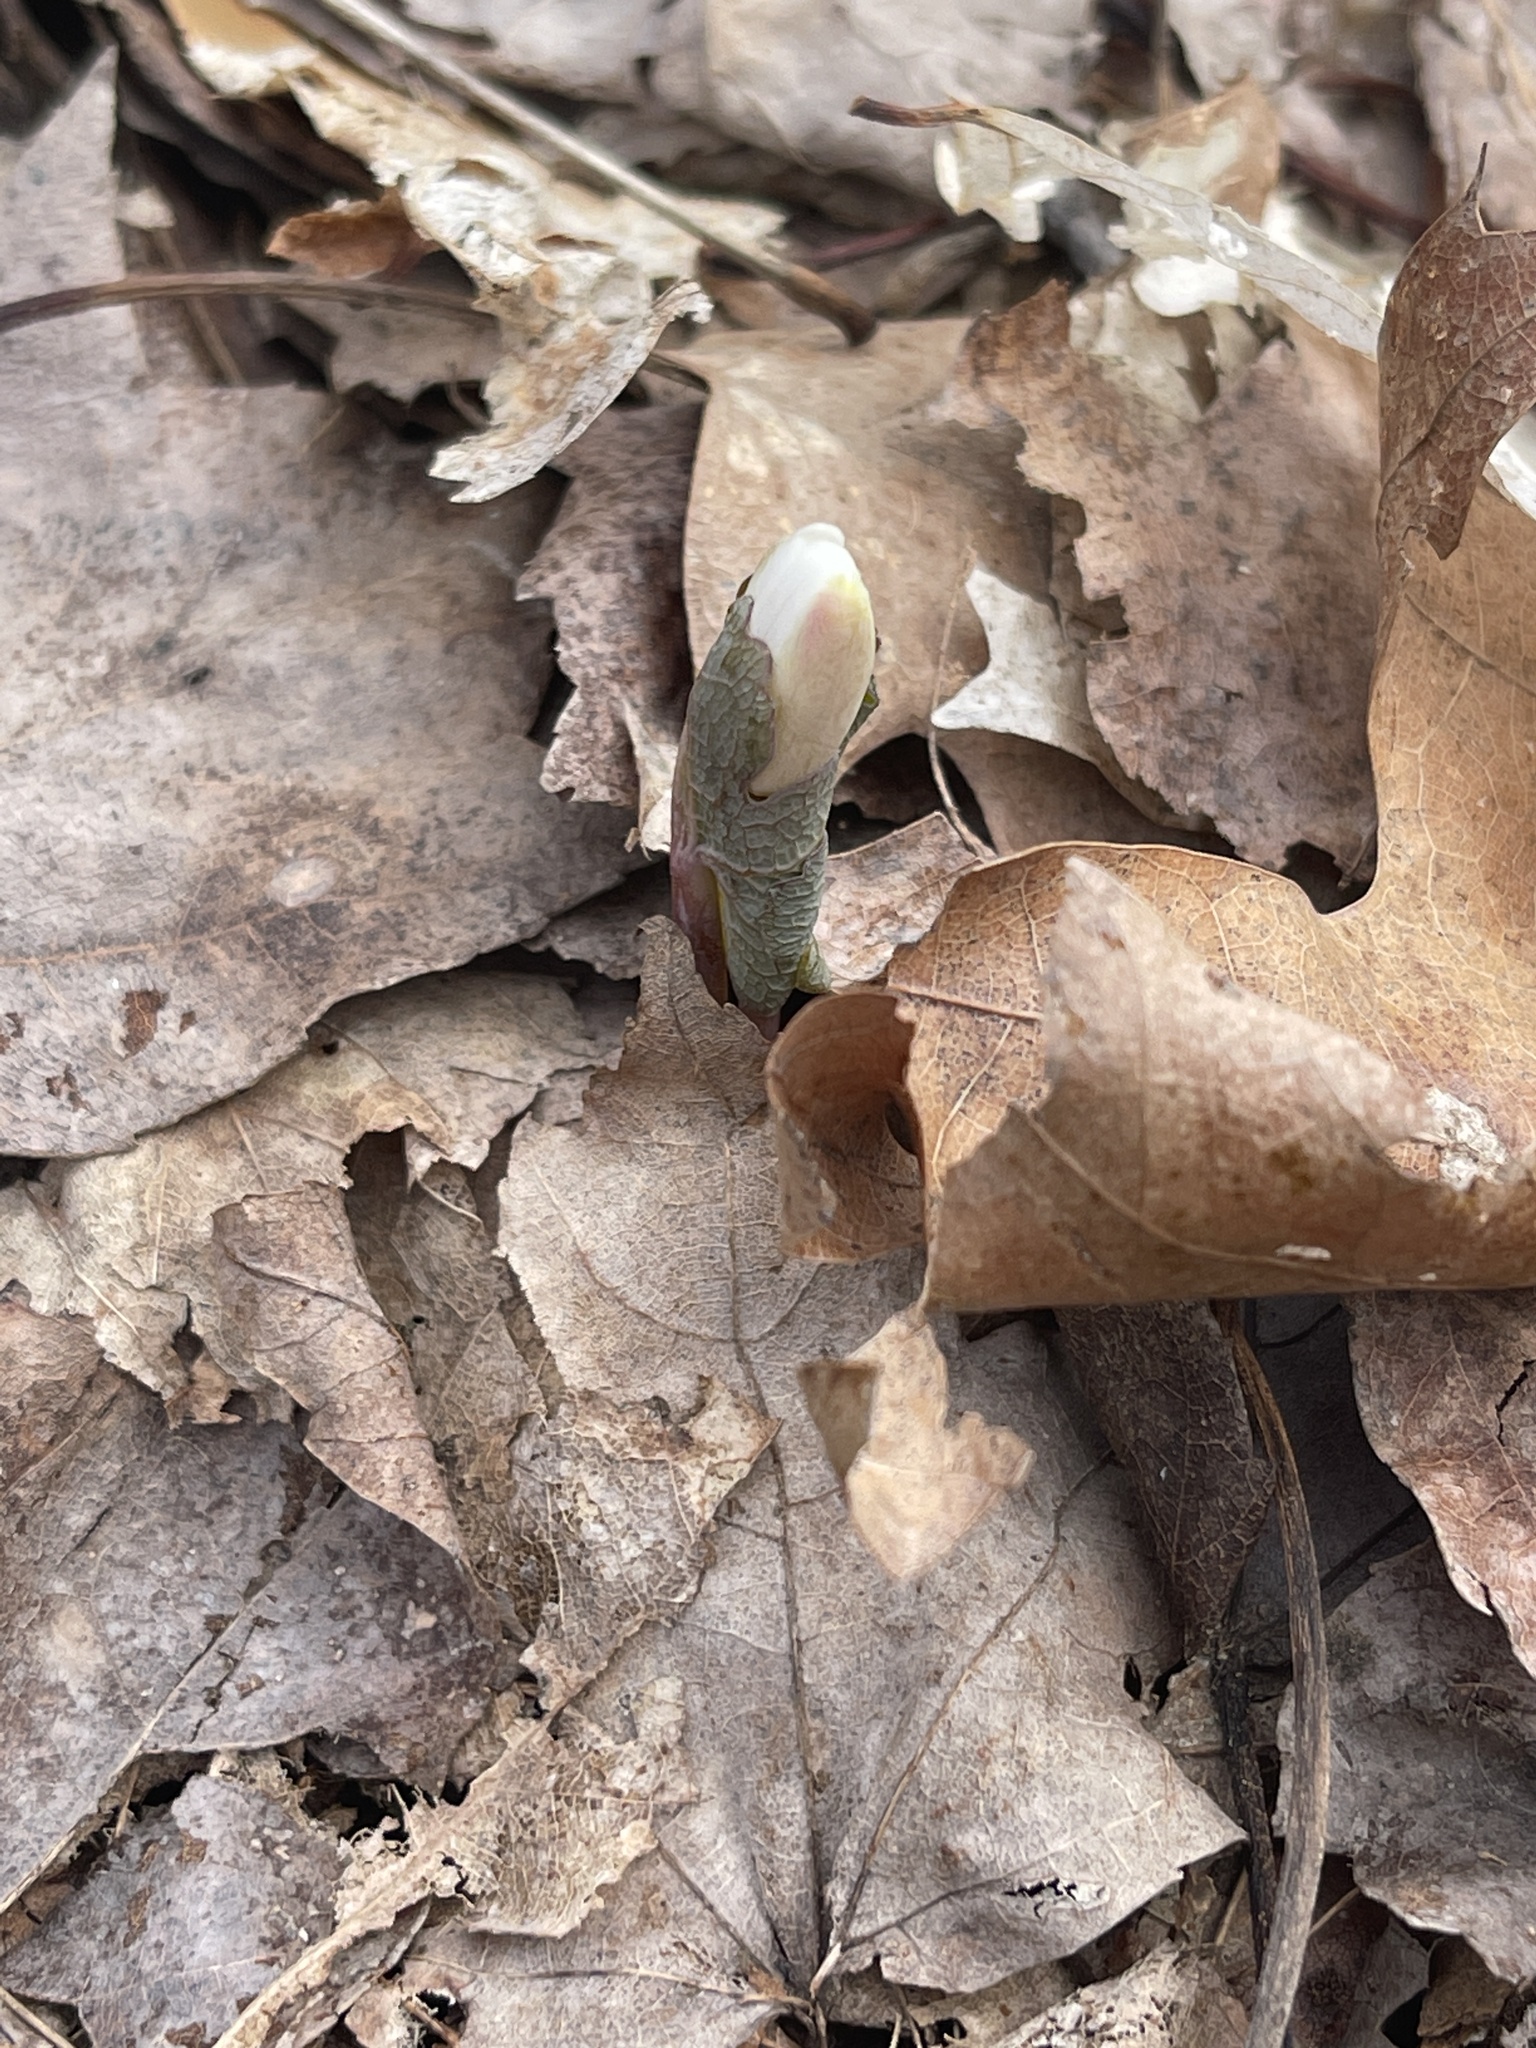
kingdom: Plantae
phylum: Tracheophyta
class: Magnoliopsida
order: Ranunculales
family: Papaveraceae
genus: Sanguinaria
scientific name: Sanguinaria canadensis
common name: Bloodroot
